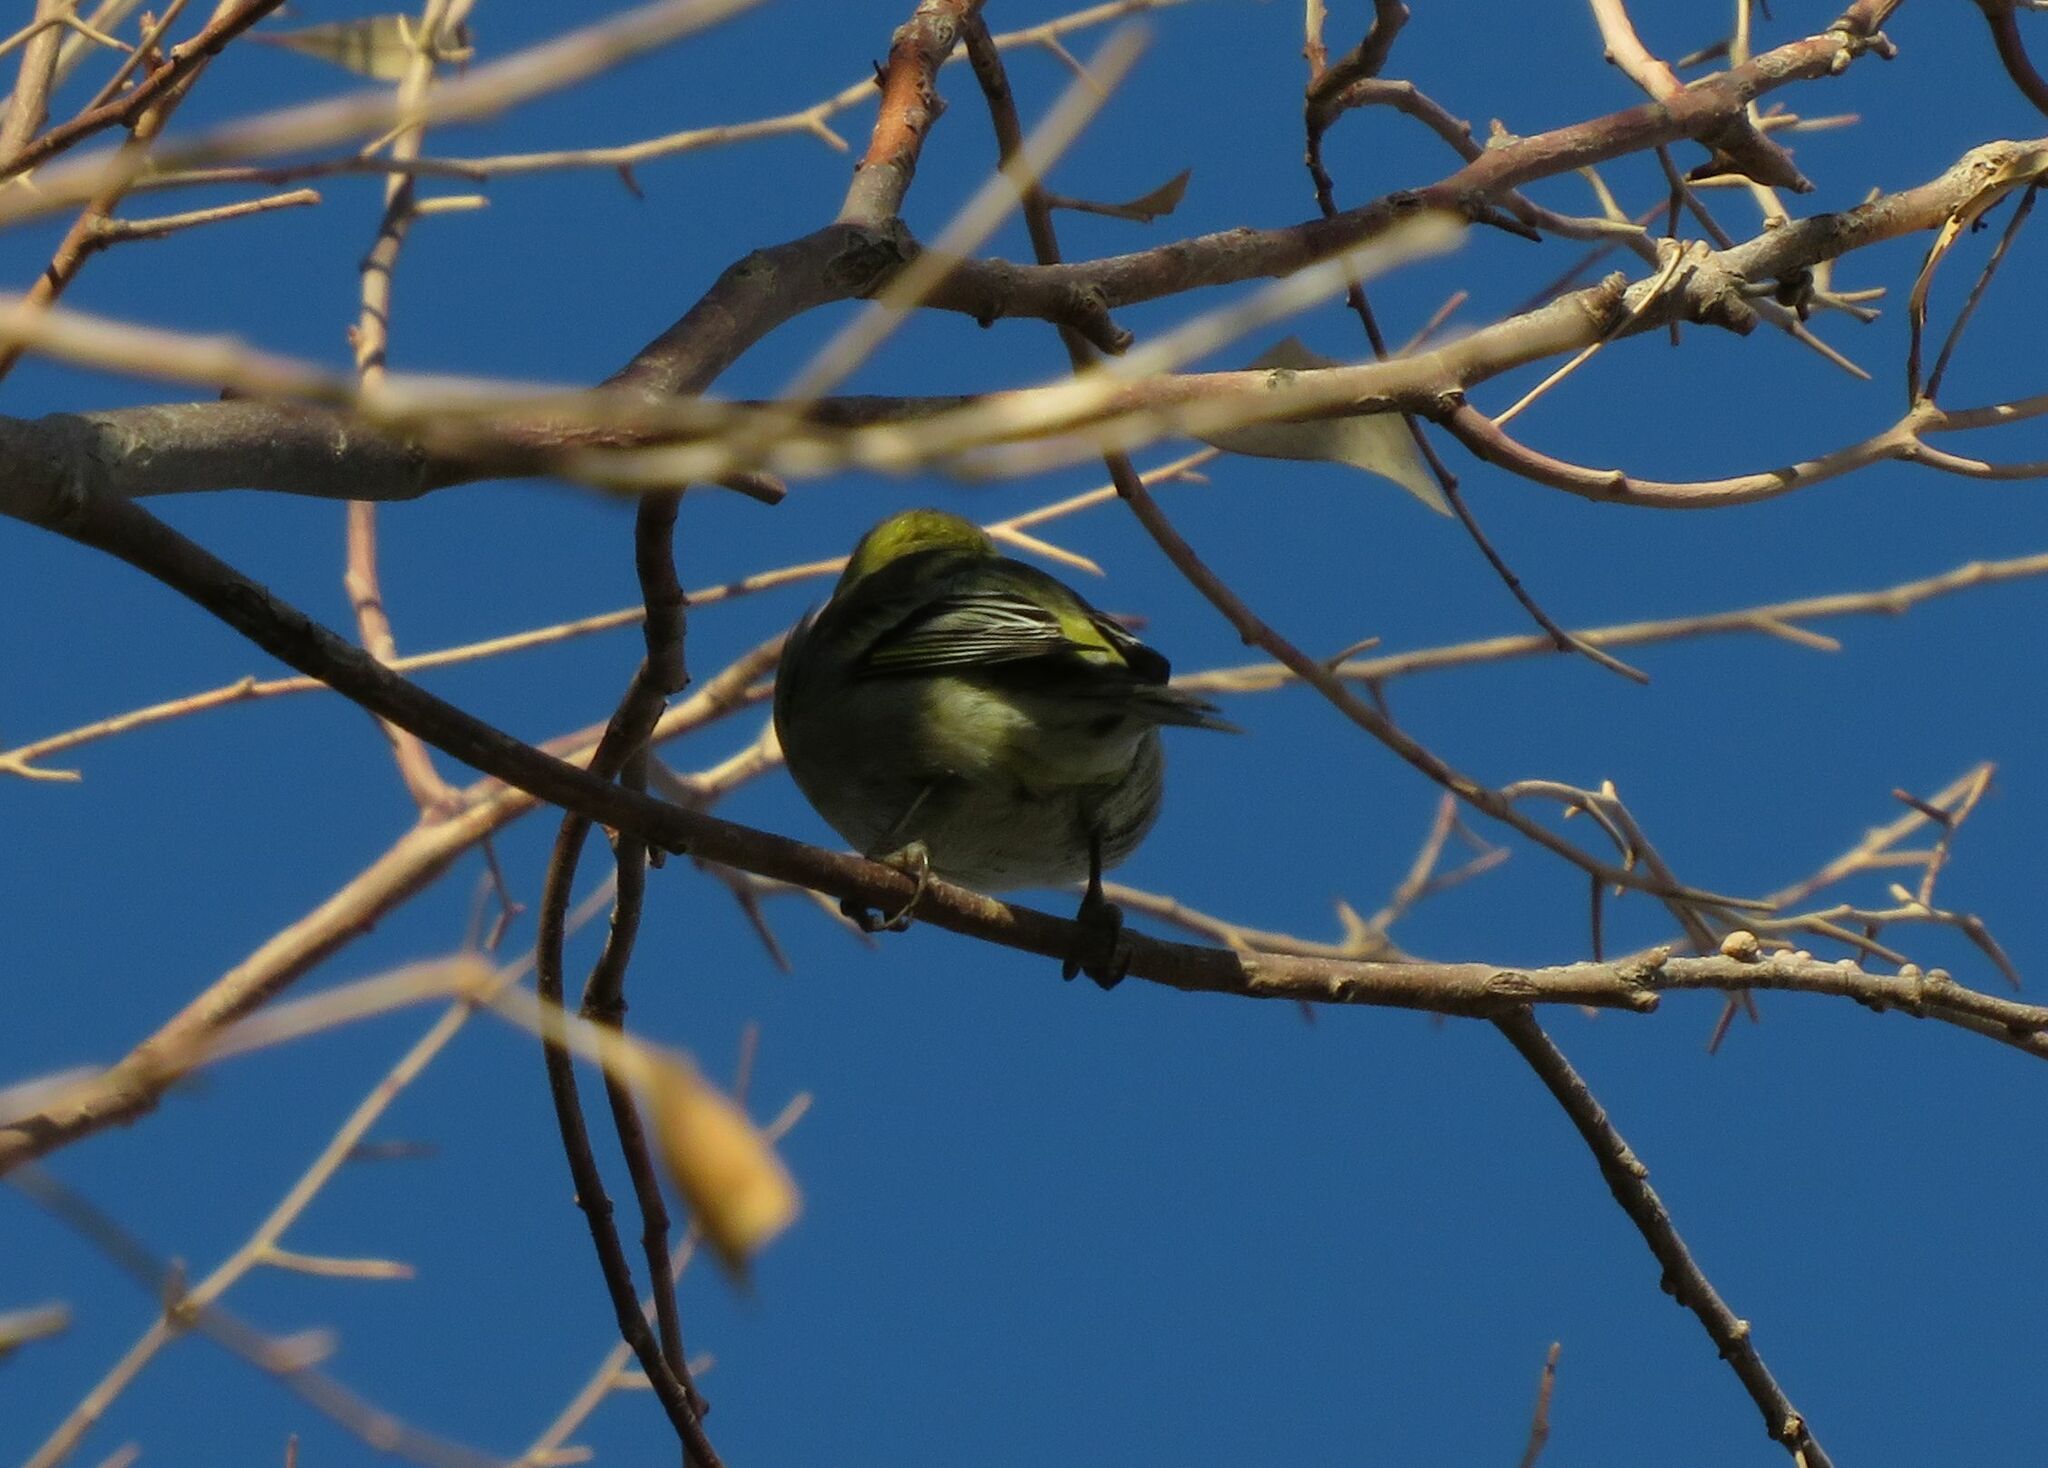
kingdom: Animalia
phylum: Chordata
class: Aves
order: Passeriformes
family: Fringillidae
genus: Spinus
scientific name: Spinus barbatus
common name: Black-chinned siskin
